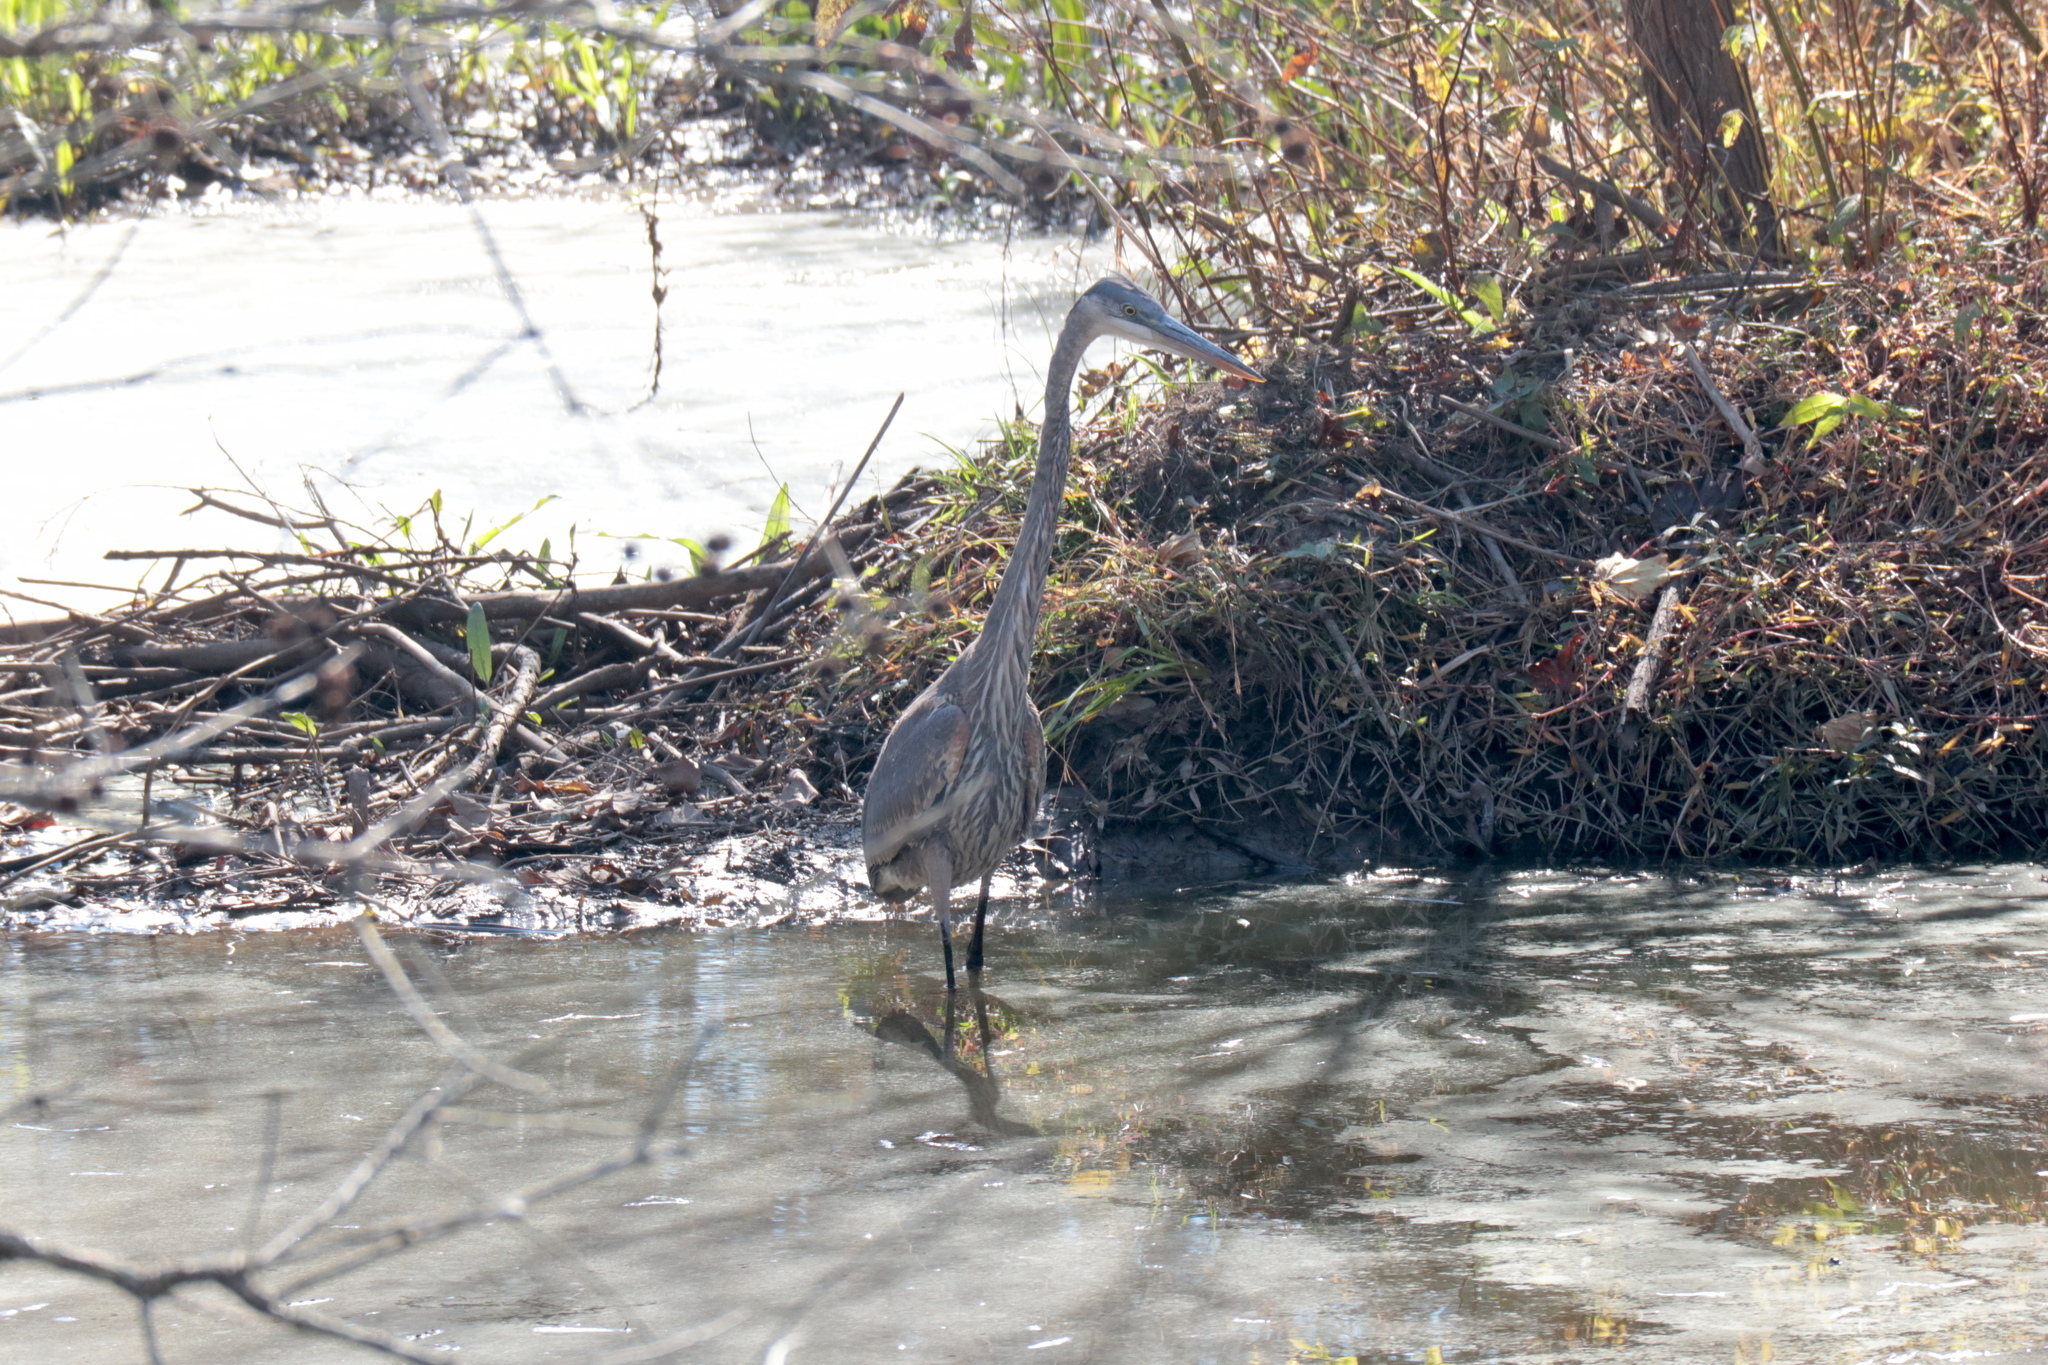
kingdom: Animalia
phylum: Chordata
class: Aves
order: Pelecaniformes
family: Ardeidae
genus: Ardea
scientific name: Ardea herodias
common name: Great blue heron
